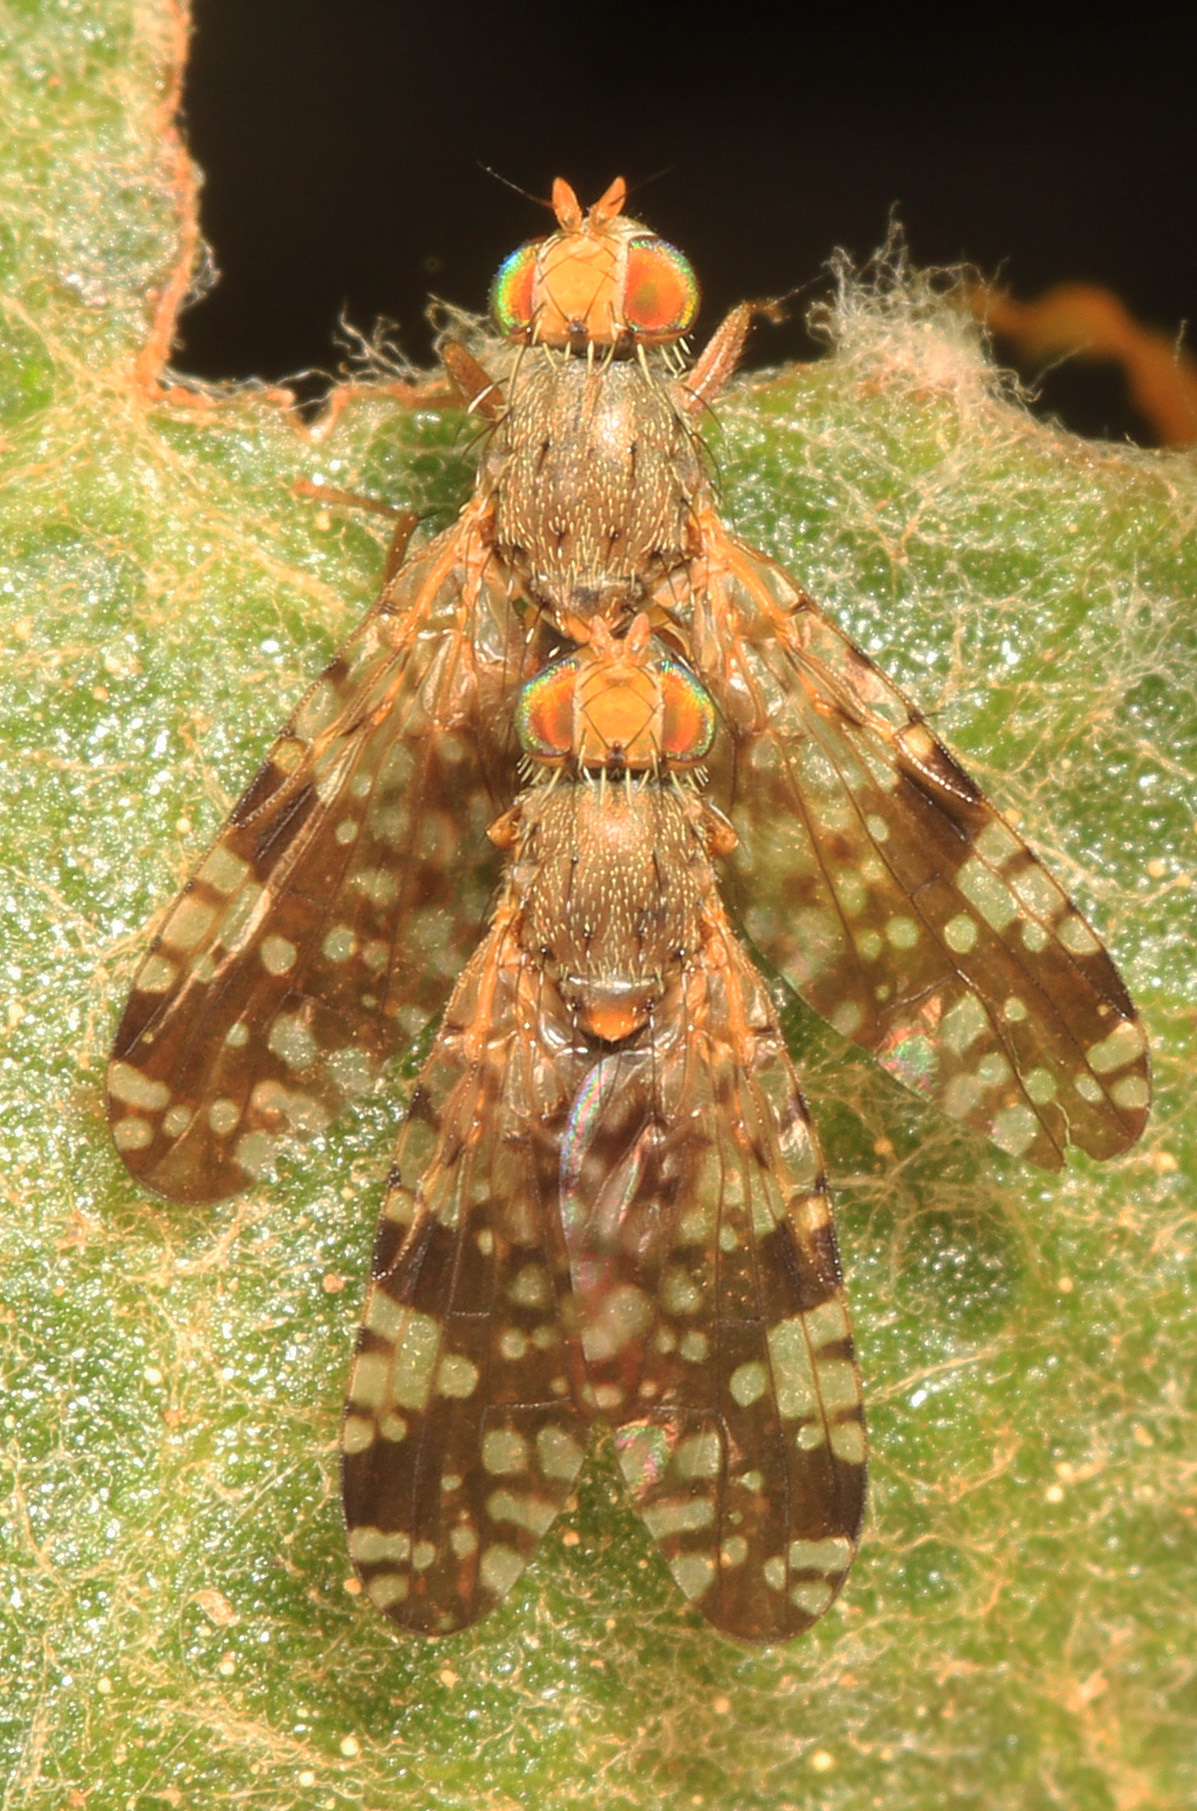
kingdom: Animalia
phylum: Arthropoda
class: Insecta
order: Diptera
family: Tephritidae
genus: Neotephritis
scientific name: Neotephritis finalis
